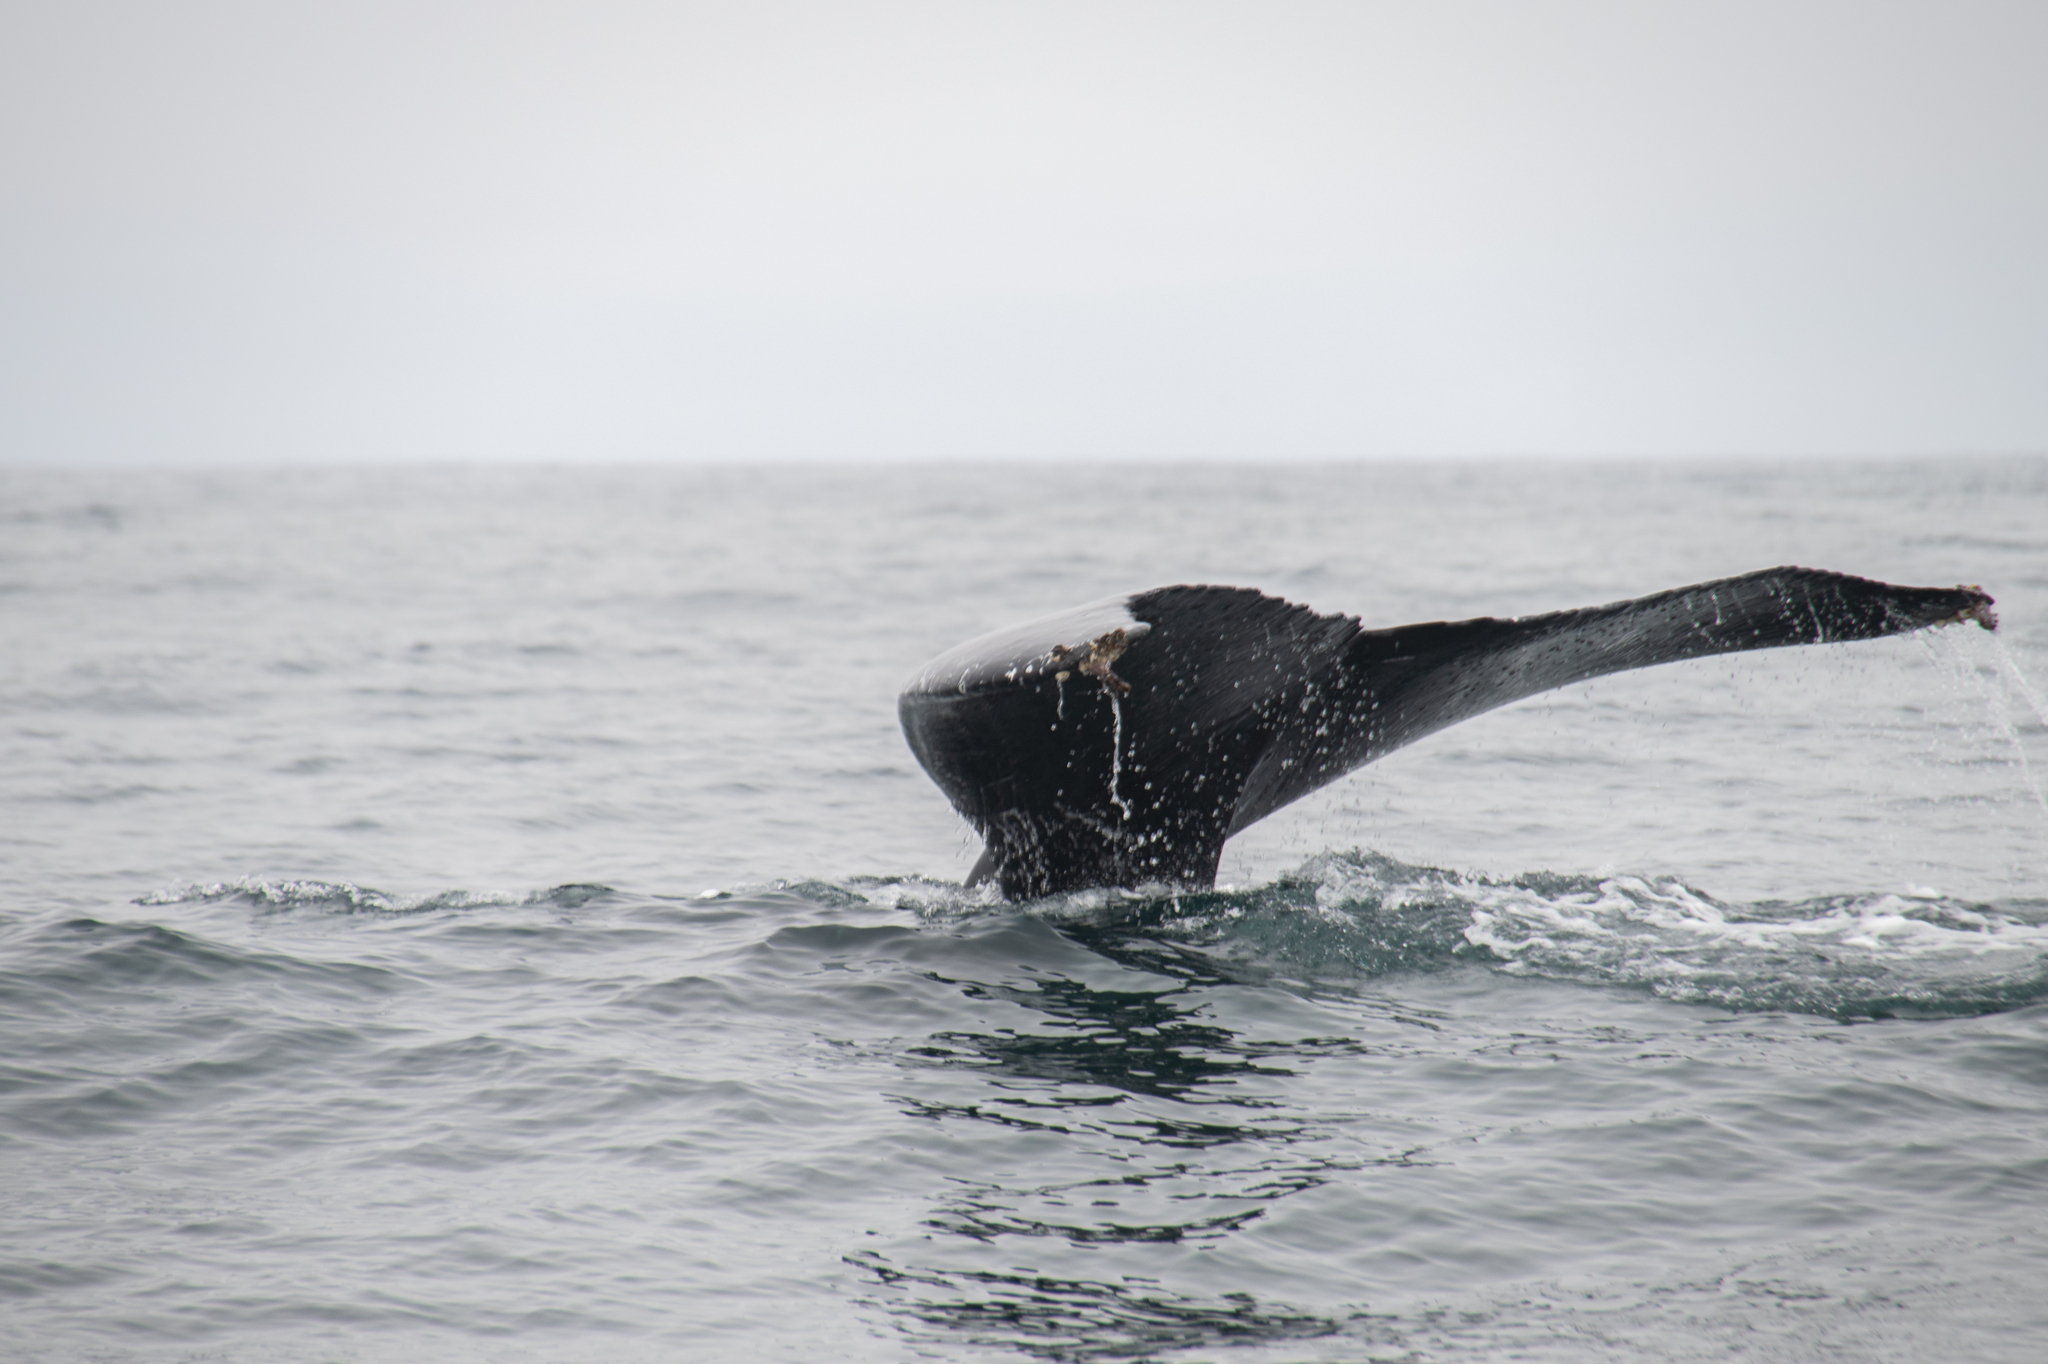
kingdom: Animalia
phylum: Chordata
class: Mammalia
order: Cetacea
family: Balaenopteridae
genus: Megaptera
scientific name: Megaptera novaeangliae
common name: Humpback whale
